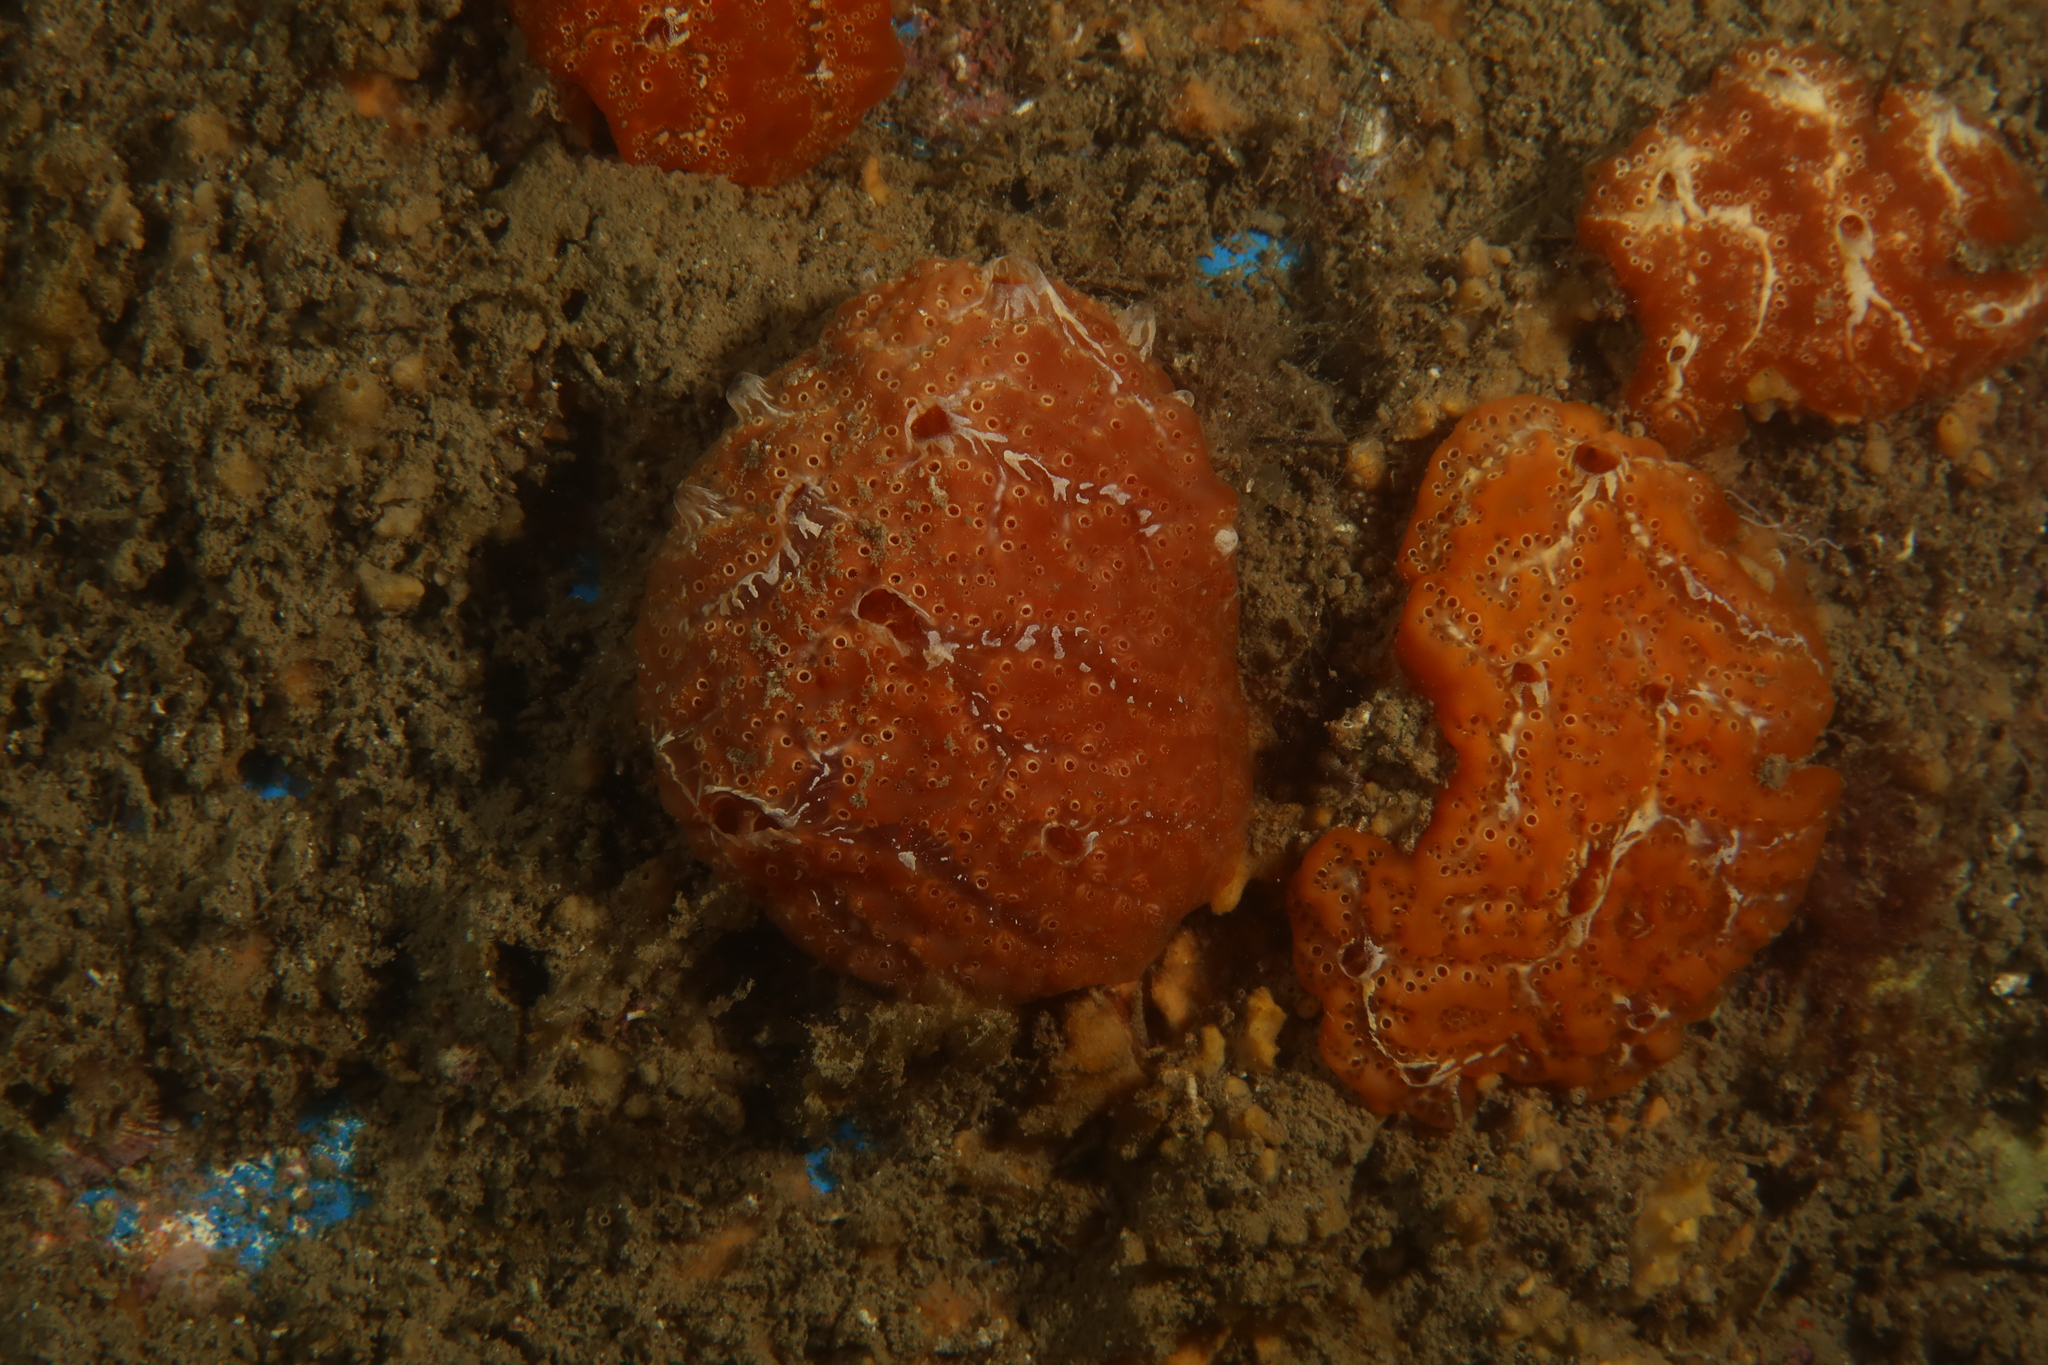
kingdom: Animalia
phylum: Chordata
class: Ascidiacea
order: Aplousobranchia
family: Polyclinidae
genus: Aplidium
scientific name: Aplidium nordmanni
